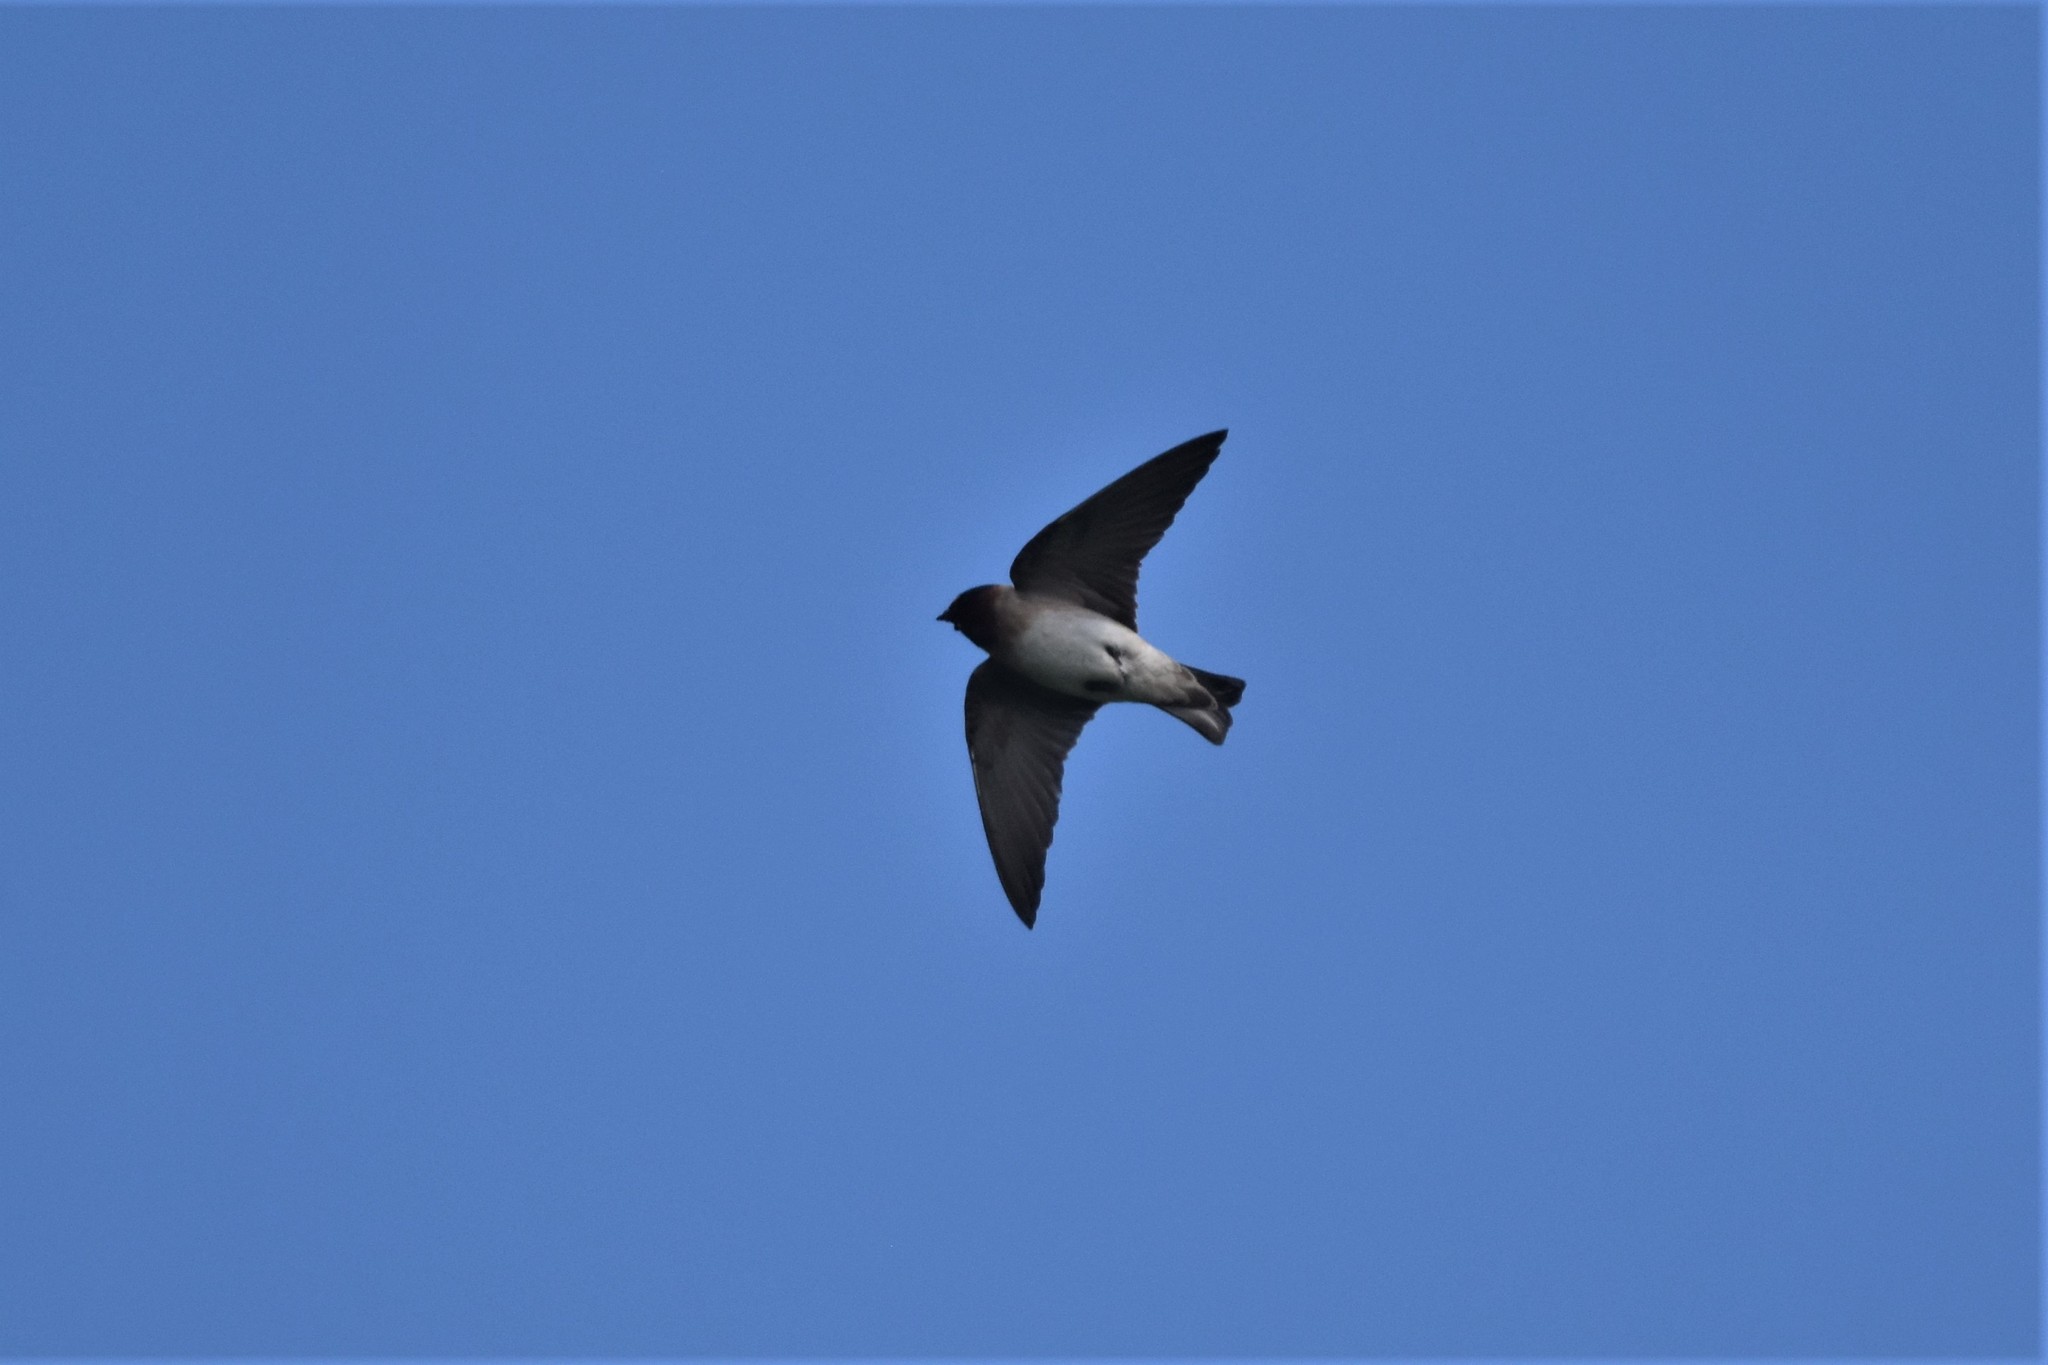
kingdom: Animalia
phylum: Chordata
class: Aves
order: Passeriformes
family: Hirundinidae
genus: Petrochelidon
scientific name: Petrochelidon pyrrhonota
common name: American cliff swallow
